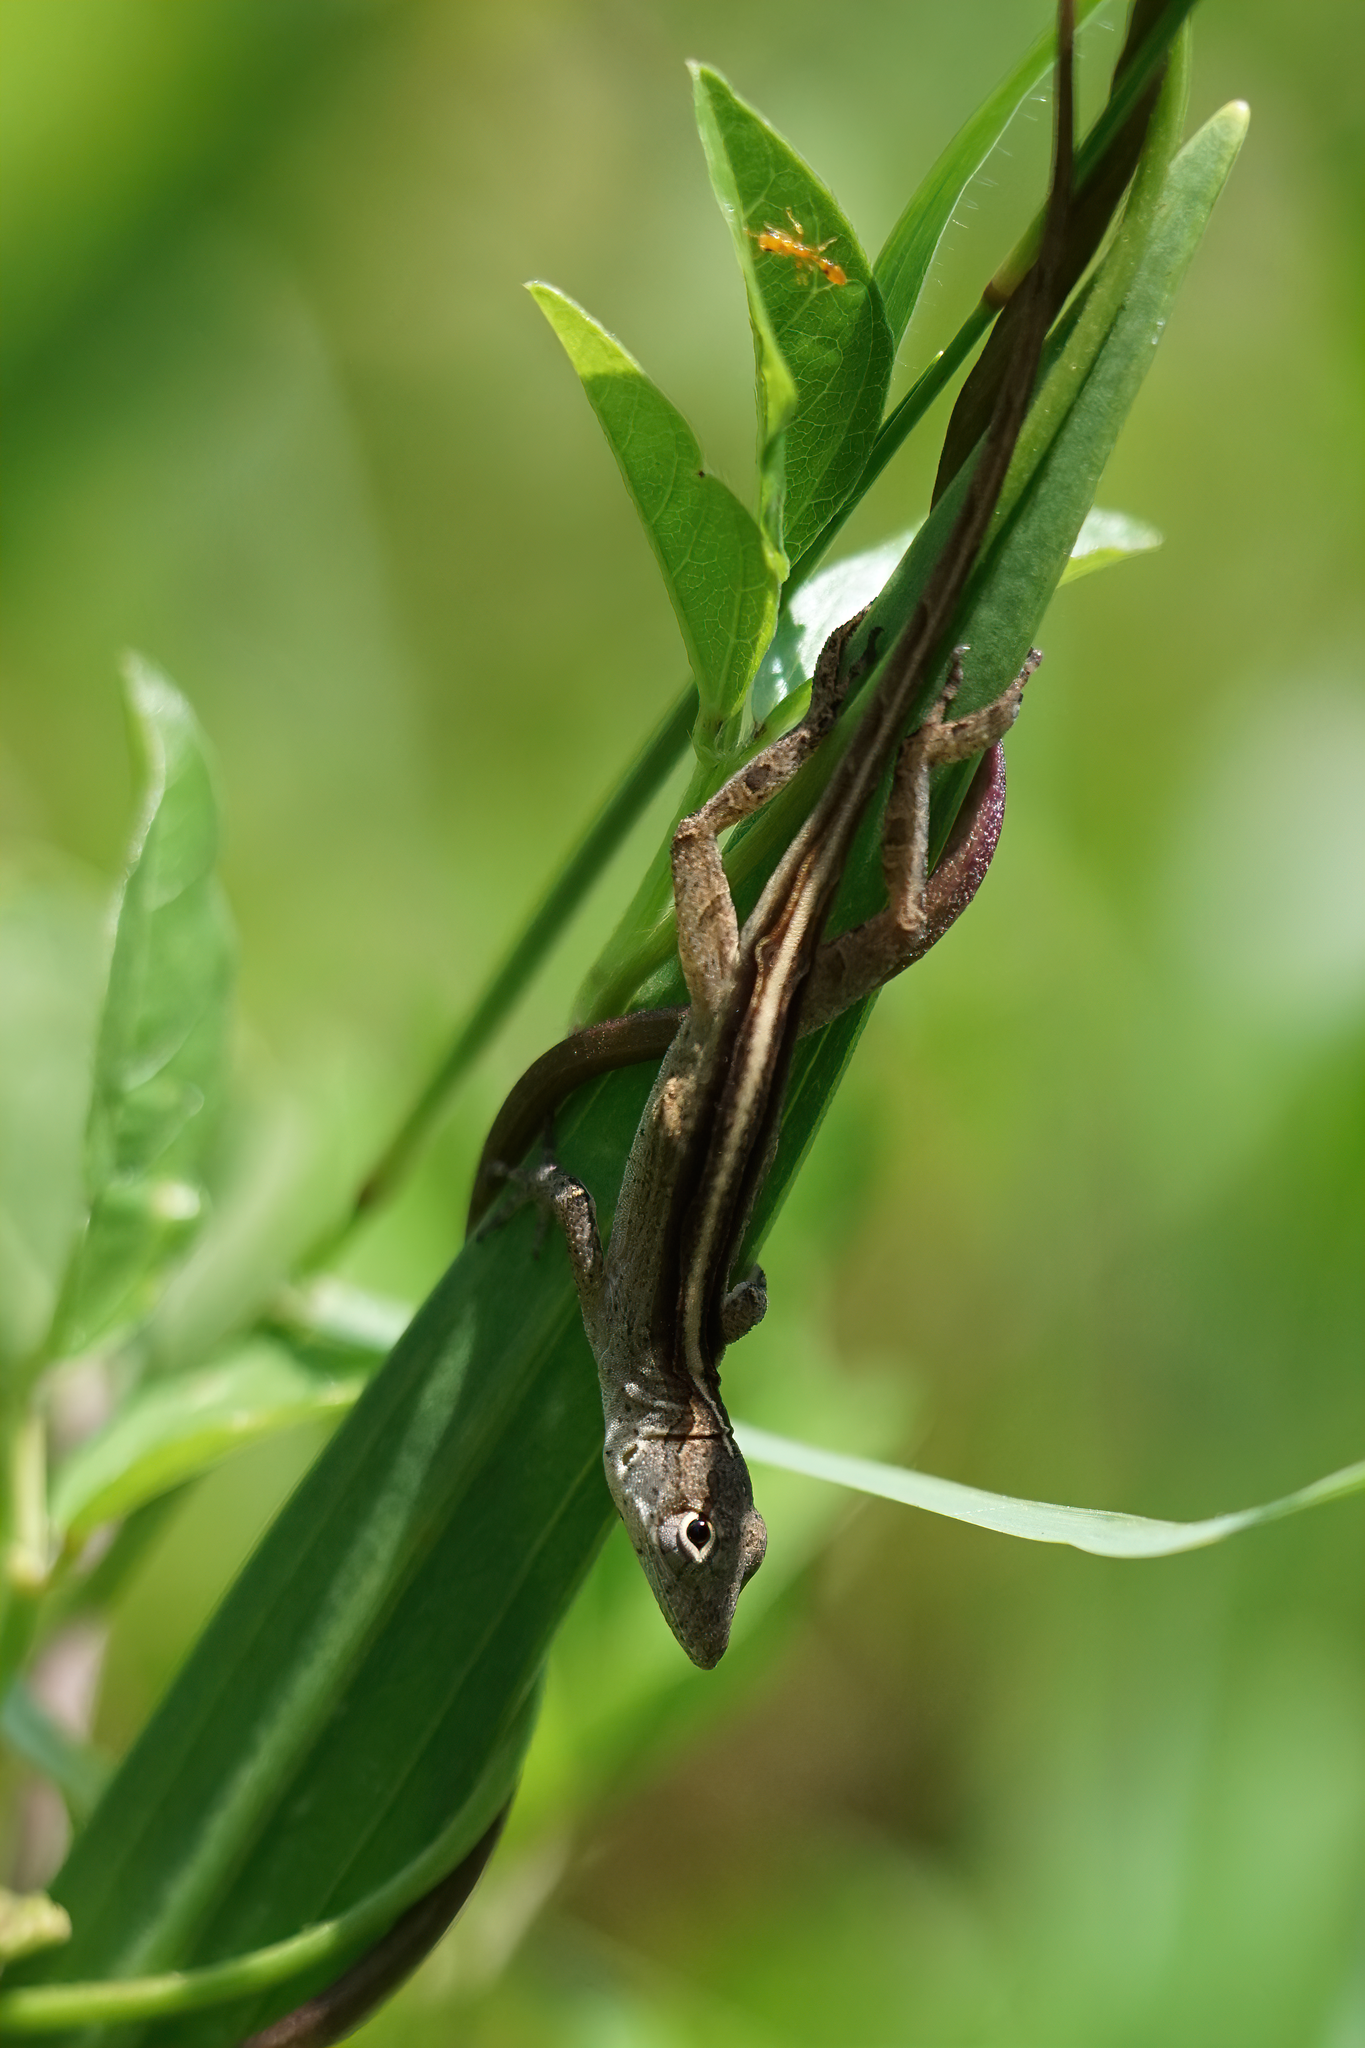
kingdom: Animalia
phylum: Chordata
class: Squamata
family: Dactyloidae
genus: Anolis
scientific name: Anolis sagrei
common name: Brown anole
